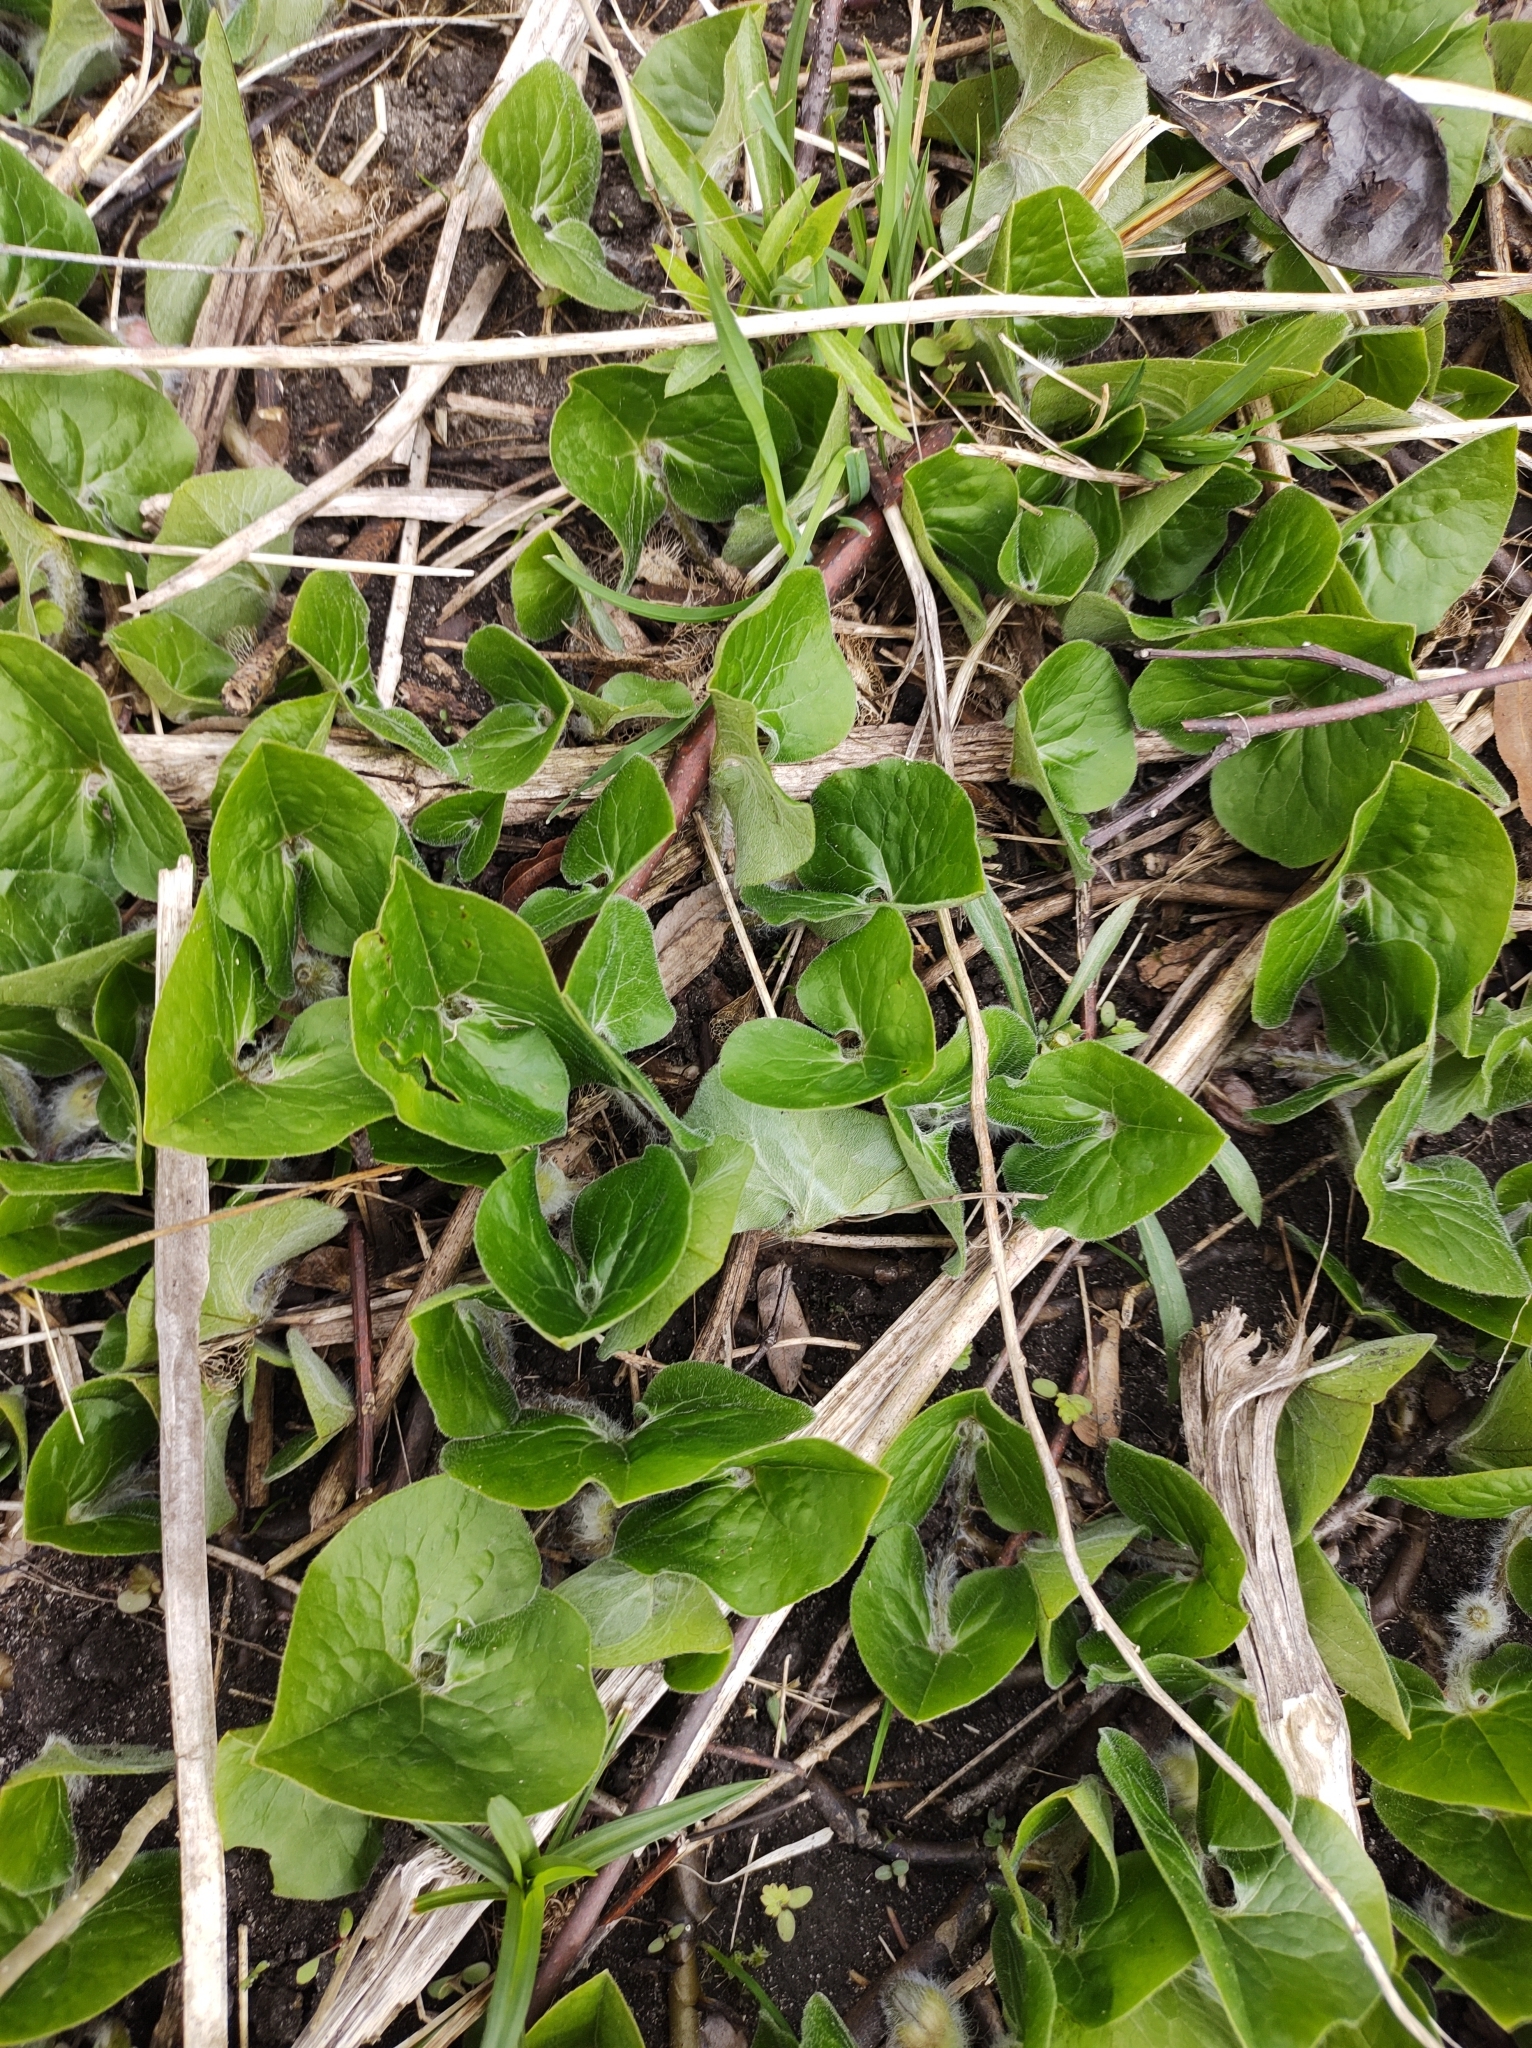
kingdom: Plantae
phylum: Tracheophyta
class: Magnoliopsida
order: Piperales
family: Aristolochiaceae
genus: Asarum
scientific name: Asarum canadense
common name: Wild ginger
